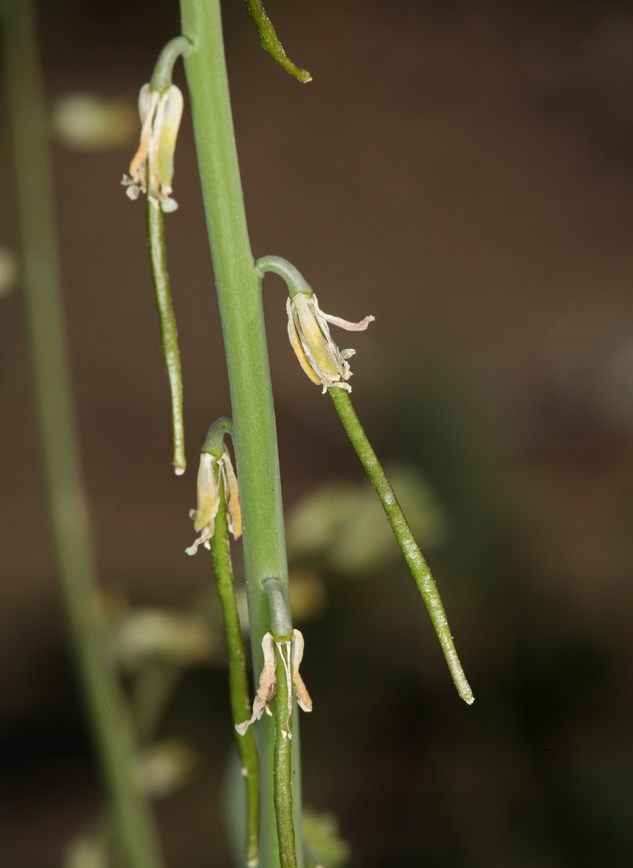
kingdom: Plantae
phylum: Tracheophyta
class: Magnoliopsida
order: Brassicales
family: Brassicaceae
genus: Streptanthus
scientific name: Streptanthus longirostris
